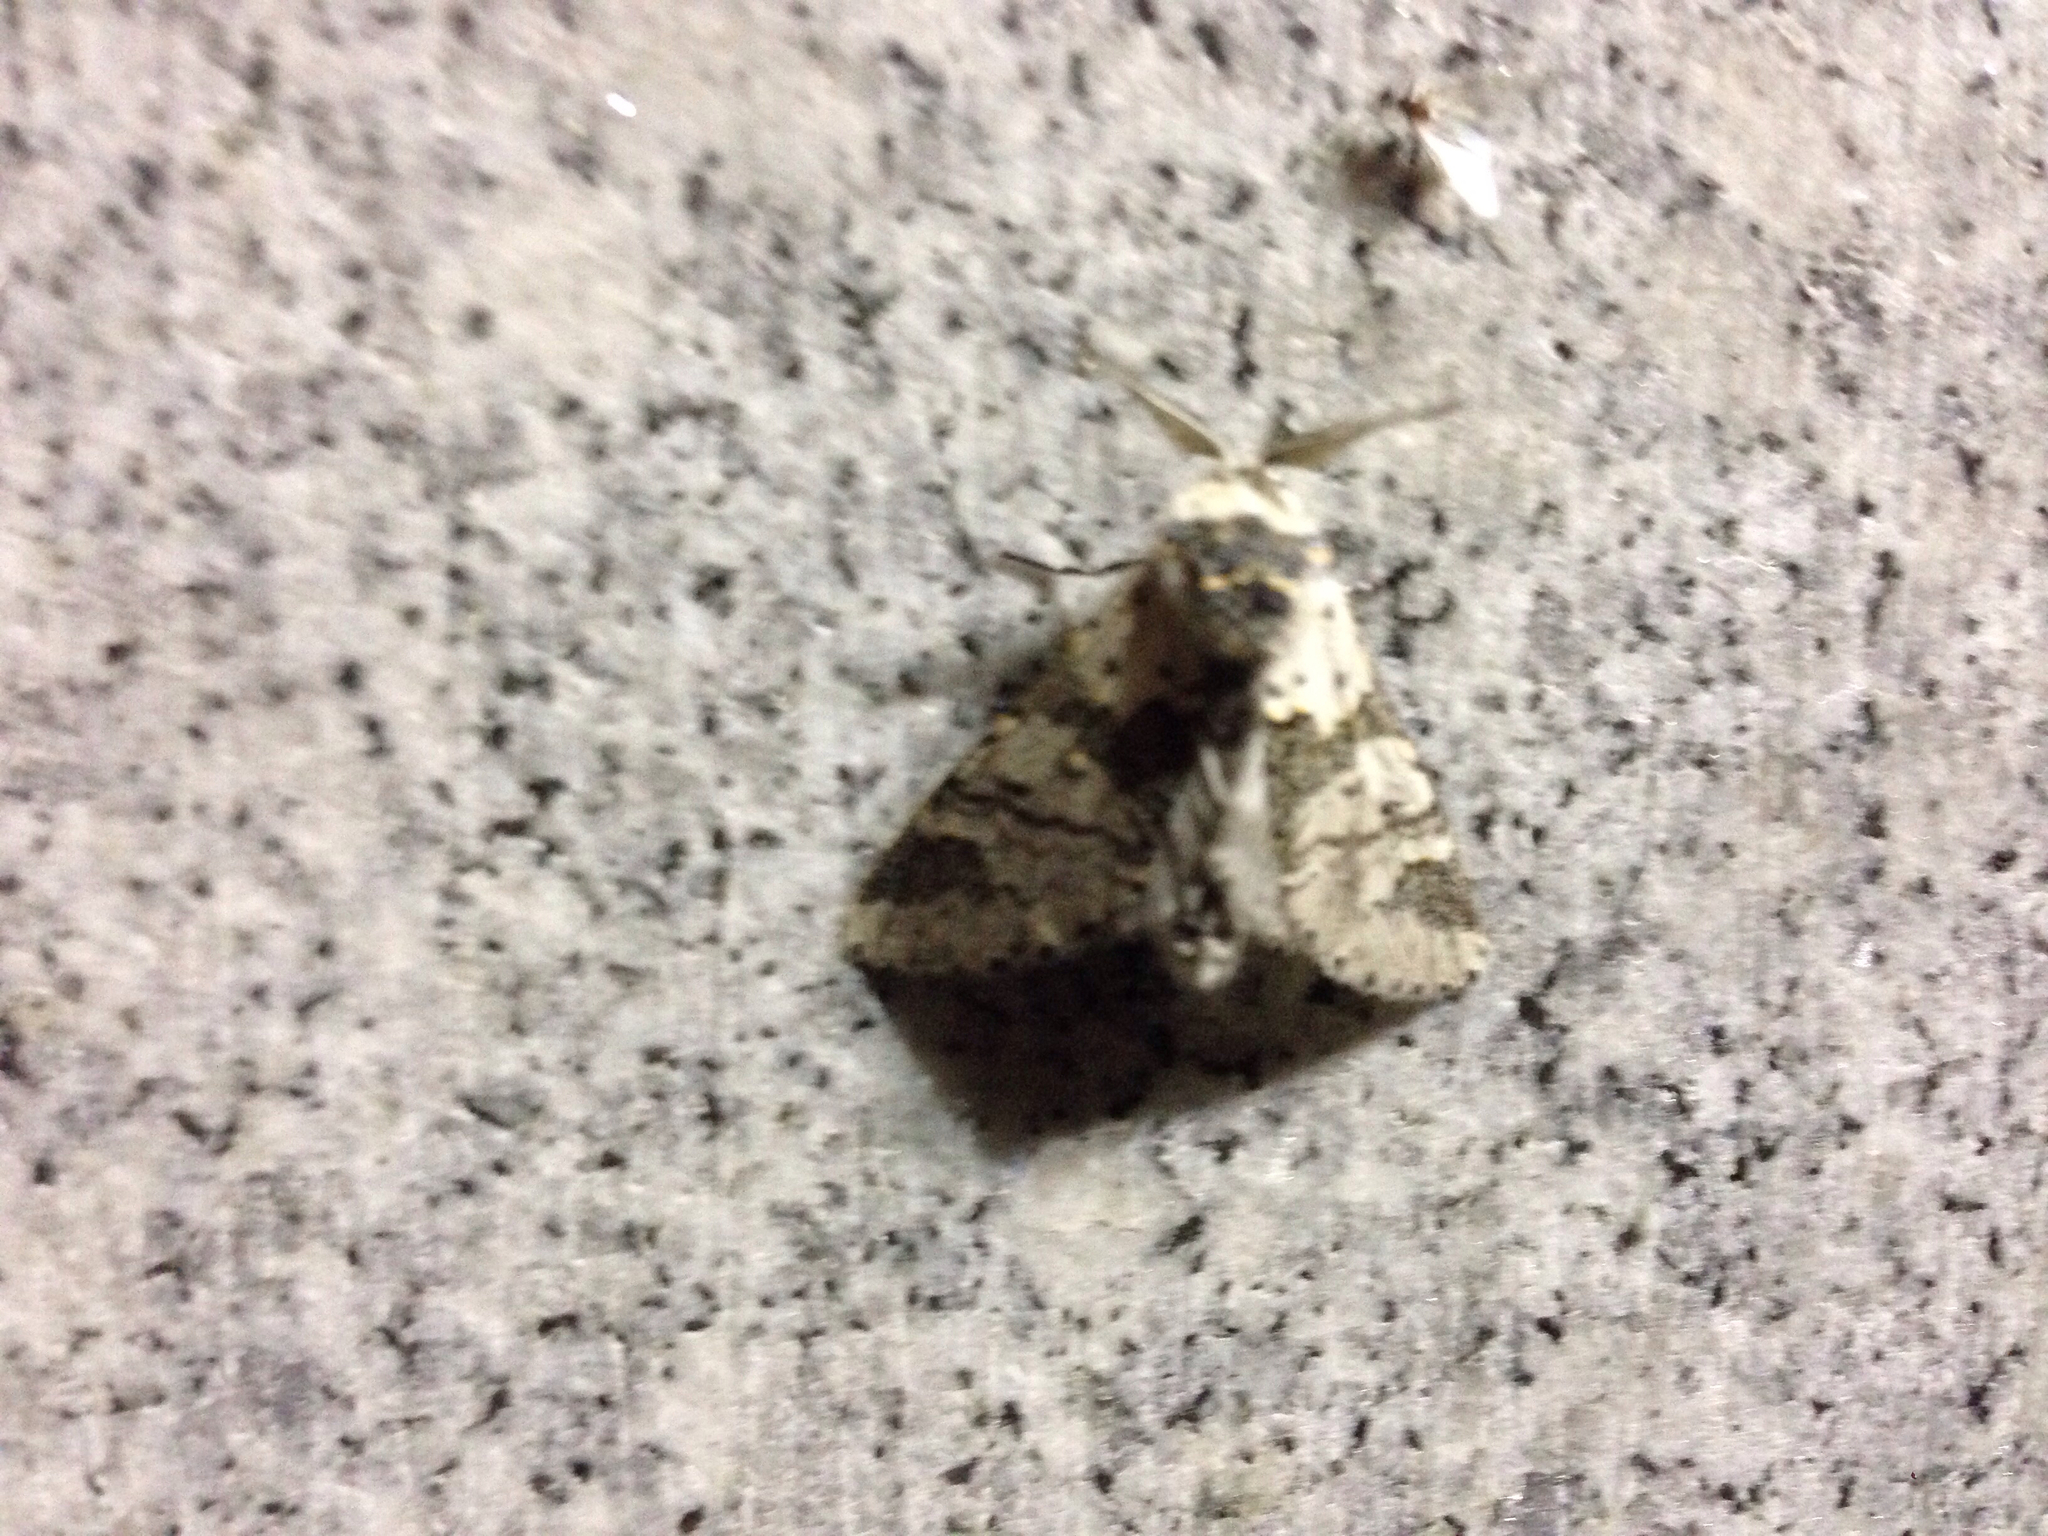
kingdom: Animalia
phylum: Arthropoda
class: Insecta
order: Lepidoptera
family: Notodontidae
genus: Furcula
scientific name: Furcula bicuspis
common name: Alder kitten
